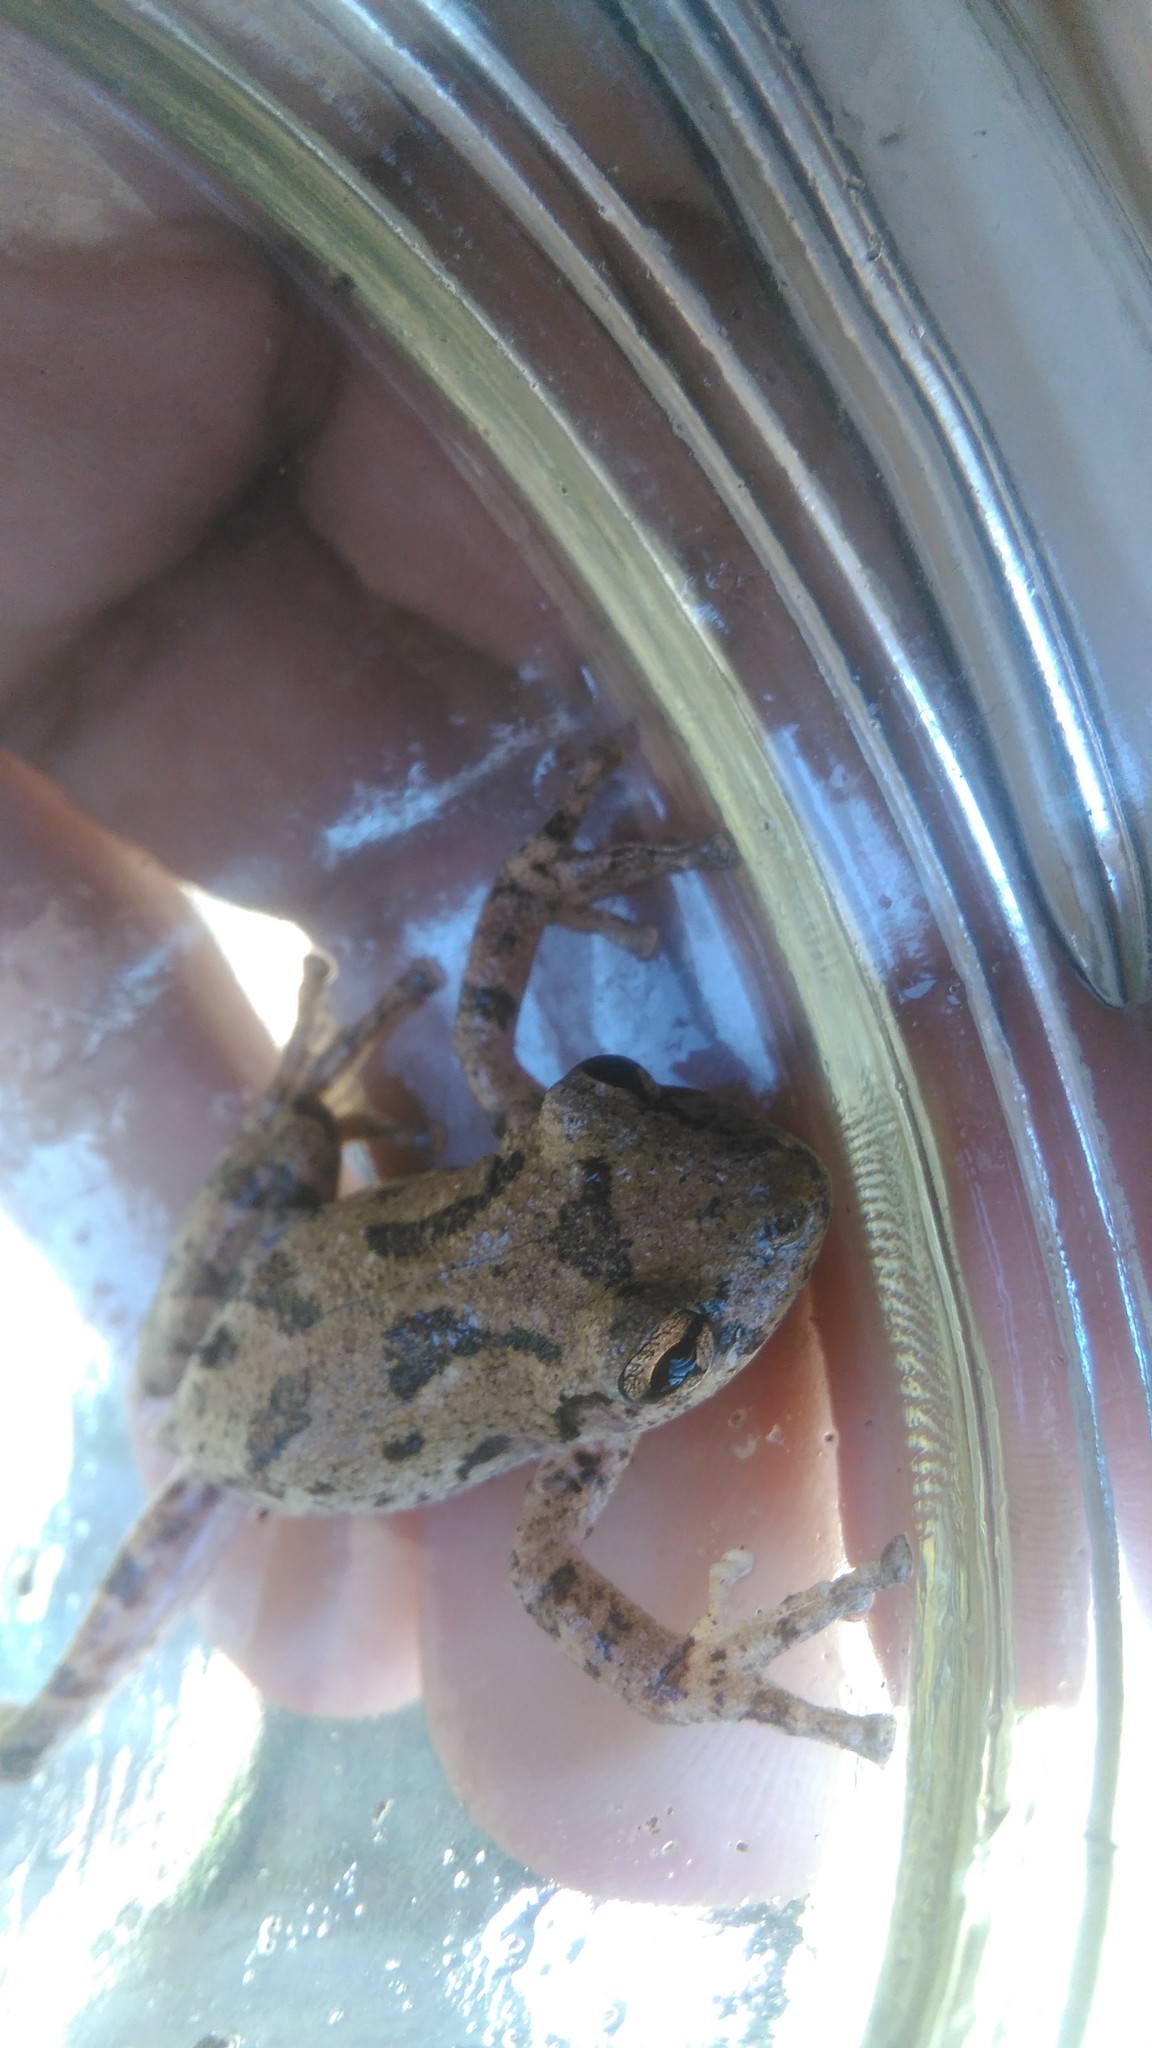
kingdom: Animalia
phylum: Chordata
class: Amphibia
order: Anura
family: Hylidae
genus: Scinax
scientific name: Scinax granulatus
